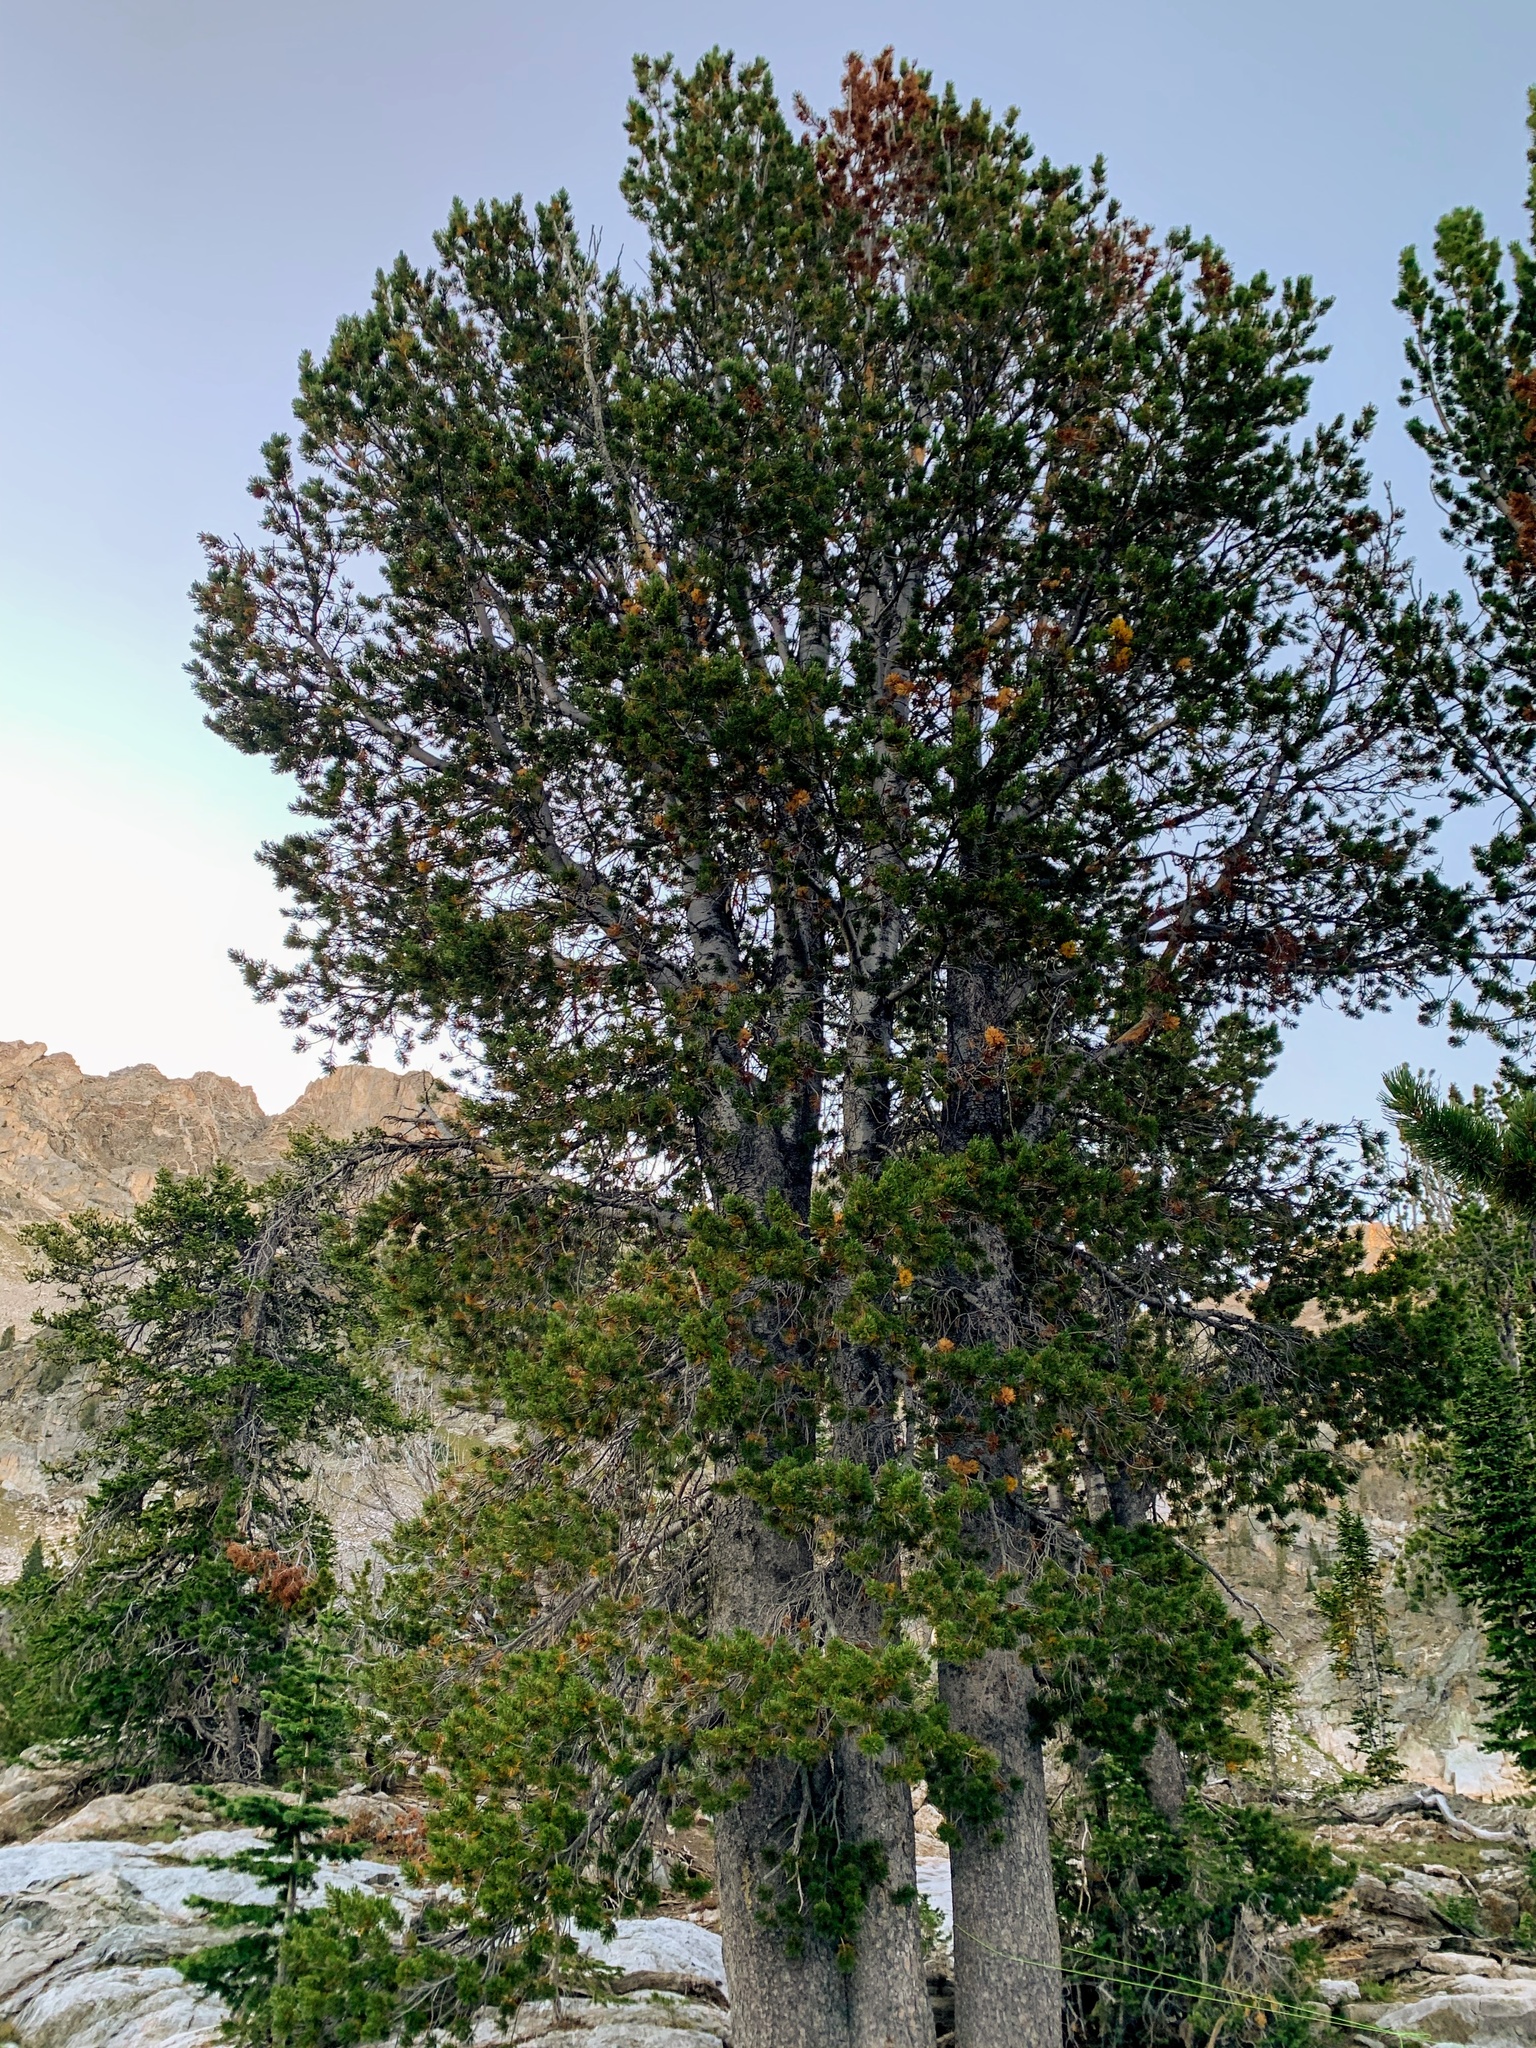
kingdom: Plantae
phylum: Tracheophyta
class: Pinopsida
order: Pinales
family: Pinaceae
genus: Pinus
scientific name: Pinus albicaulis
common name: Whitebark pine
